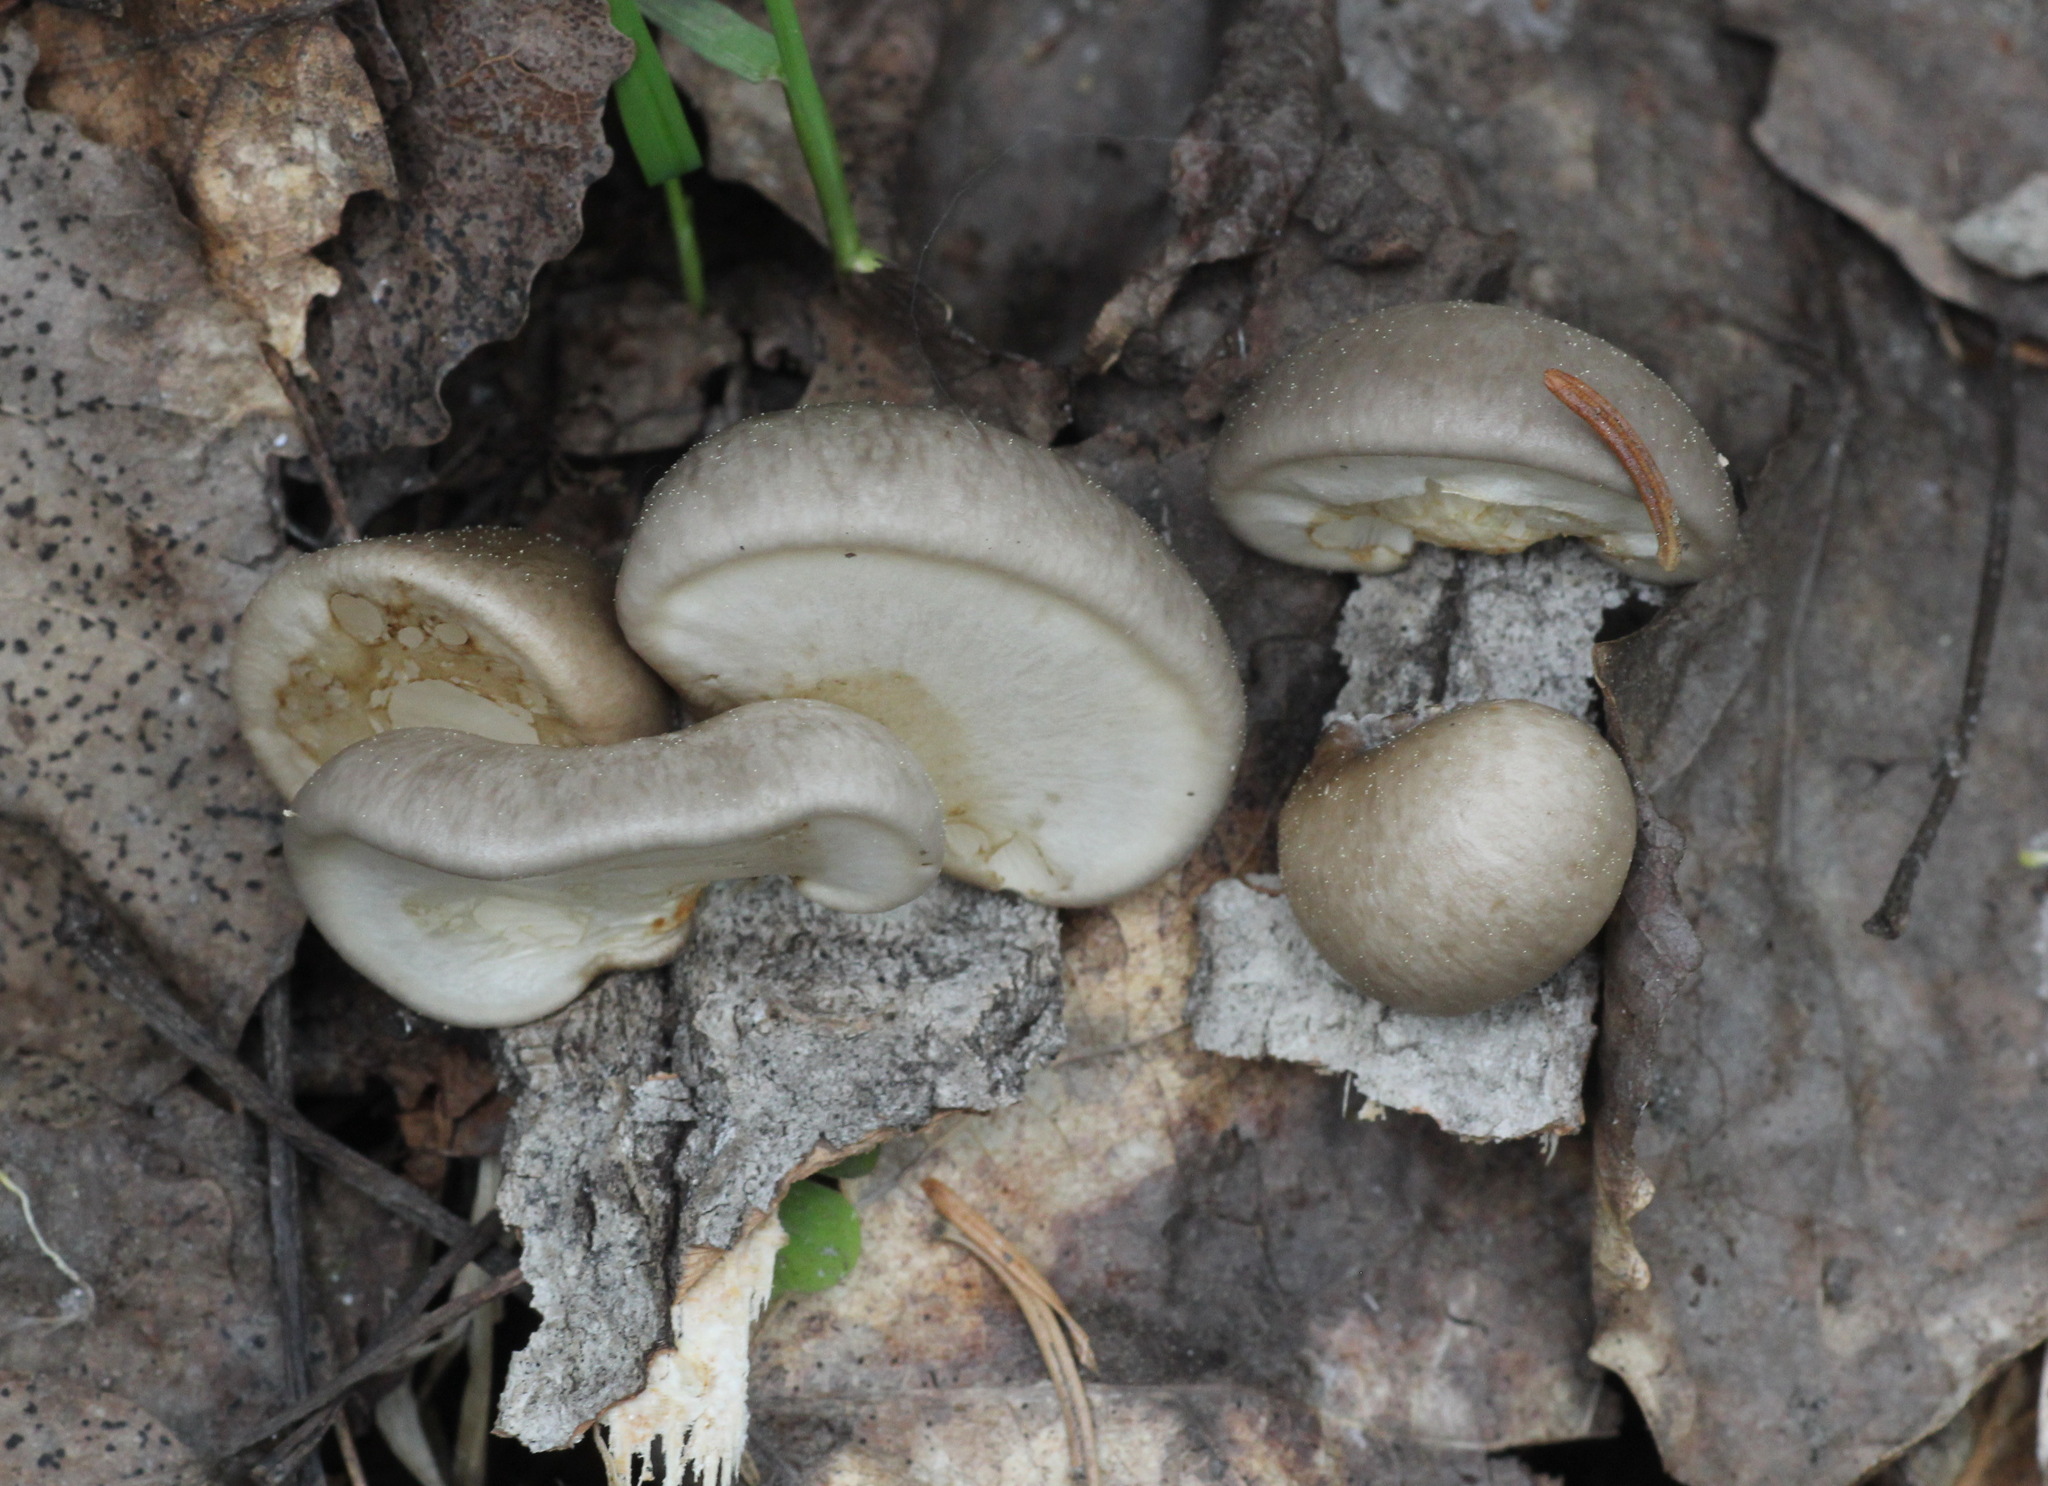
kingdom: Fungi
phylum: Basidiomycota
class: Agaricomycetes
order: Agaricales
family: Pleurotaceae
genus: Pleurotus
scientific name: Pleurotus calyptratus
